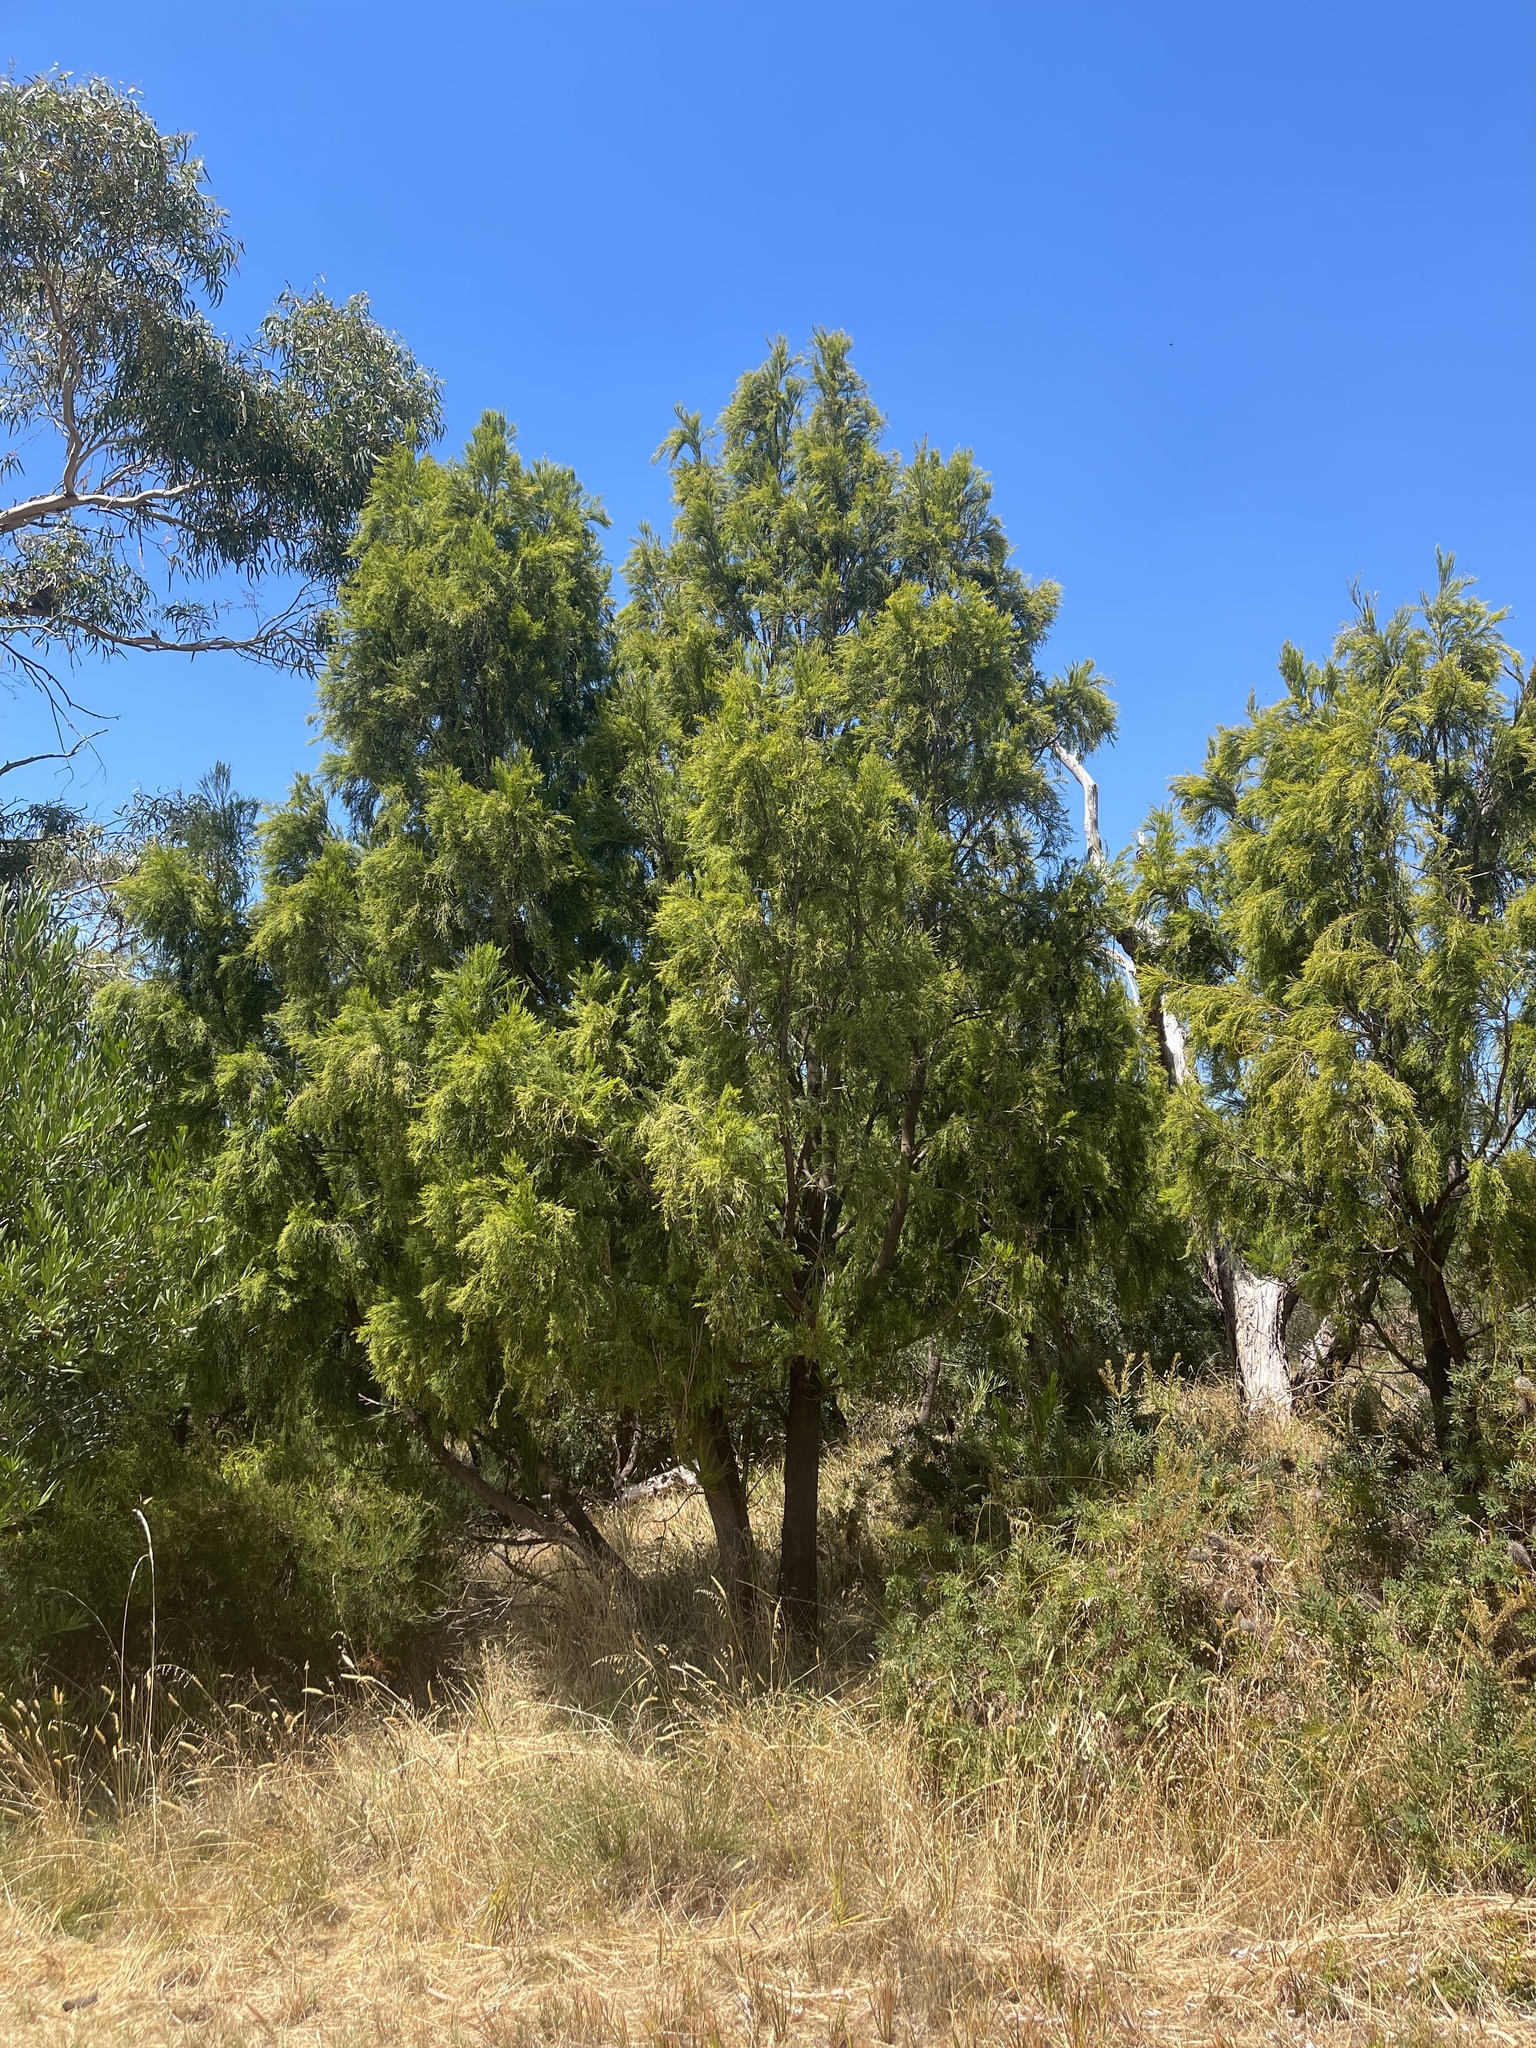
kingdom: Plantae
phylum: Tracheophyta
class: Magnoliopsida
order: Santalales
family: Santalaceae
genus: Exocarpos
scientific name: Exocarpos cupressiformis
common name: Cherry ballart
